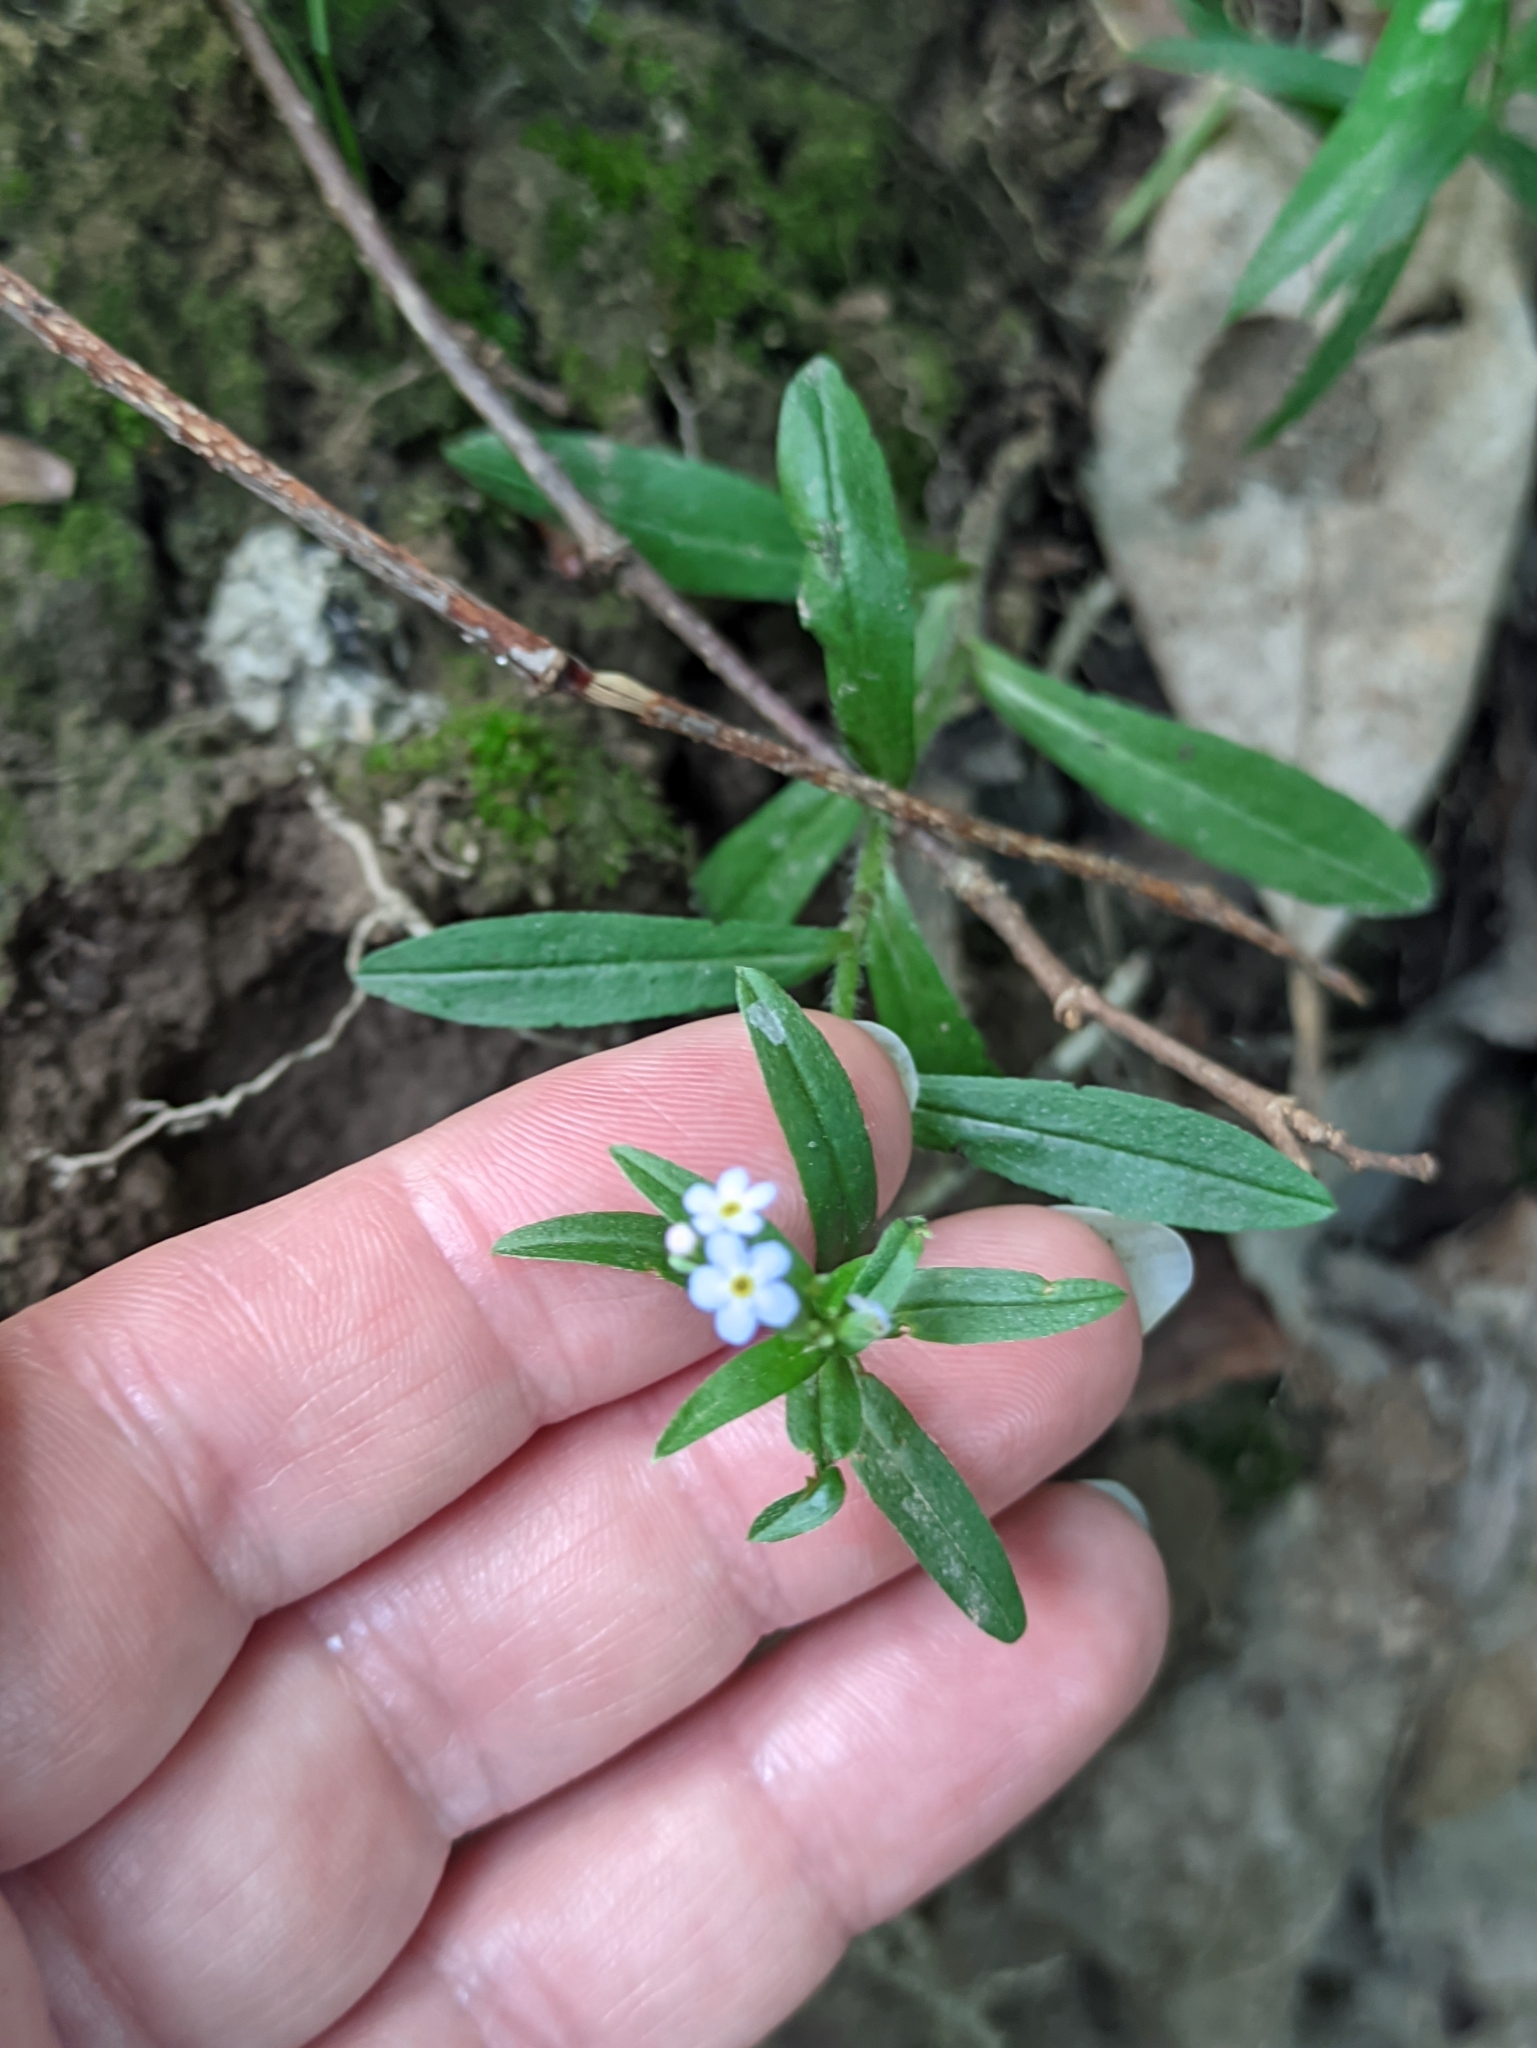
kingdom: Plantae
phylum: Tracheophyta
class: Magnoliopsida
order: Boraginales
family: Boraginaceae
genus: Myosotis
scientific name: Myosotis scorpioides
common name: Water forget-me-not
